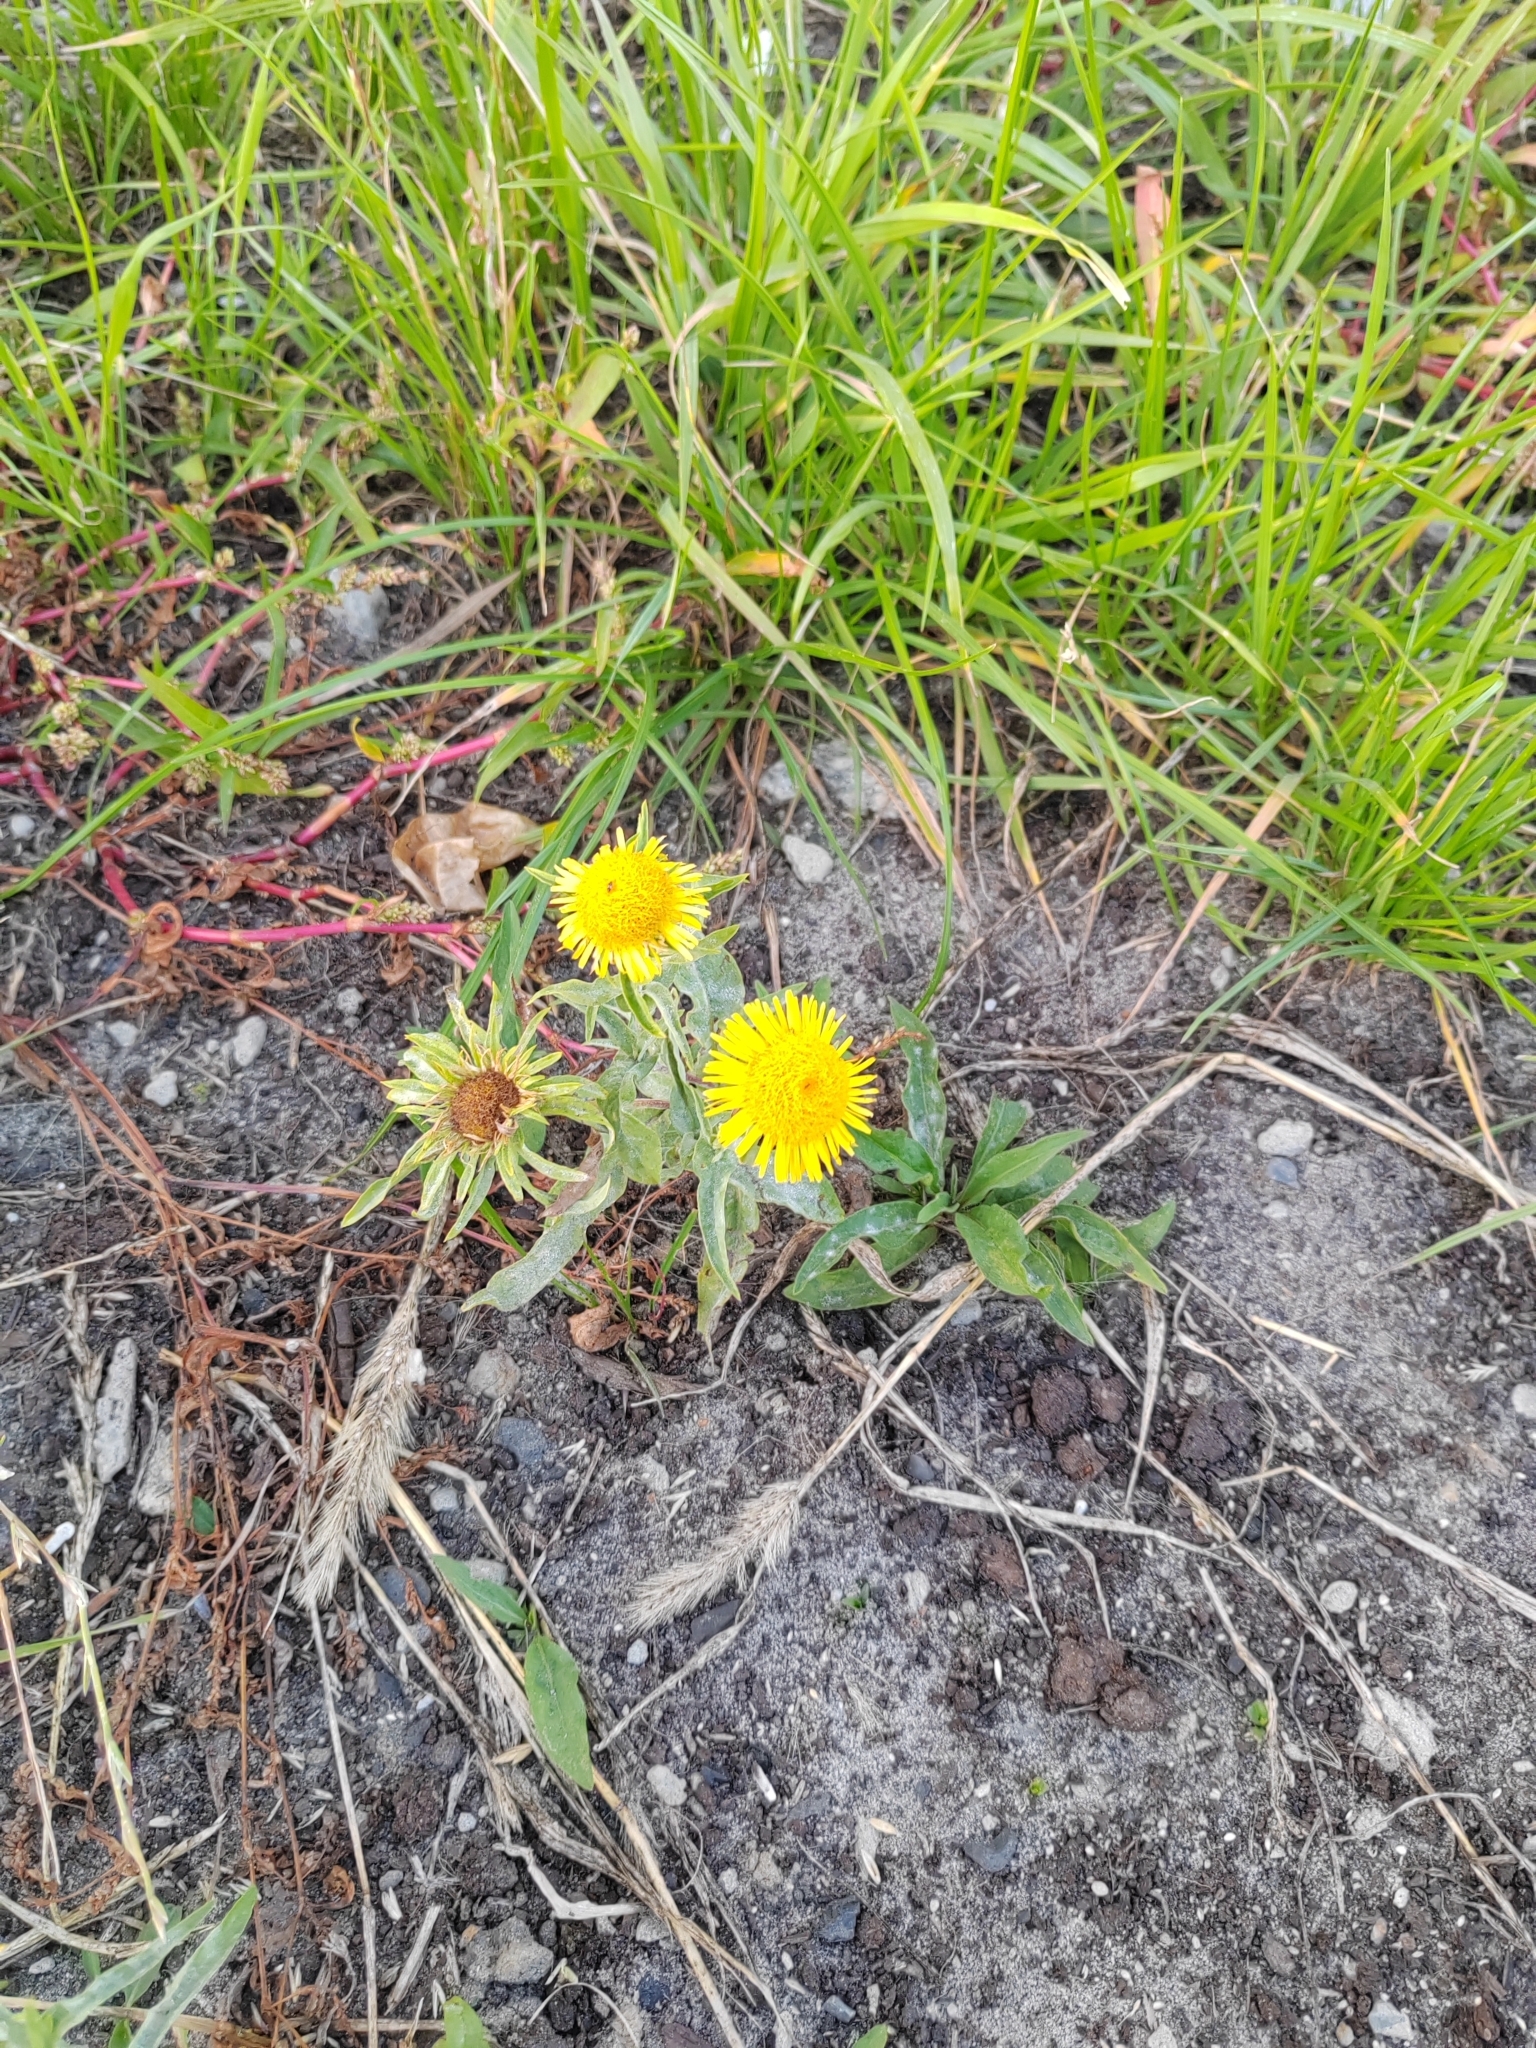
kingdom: Plantae
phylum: Tracheophyta
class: Magnoliopsida
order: Asterales
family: Asteraceae
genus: Pentanema
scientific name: Pentanema britannicum
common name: British elecampane
